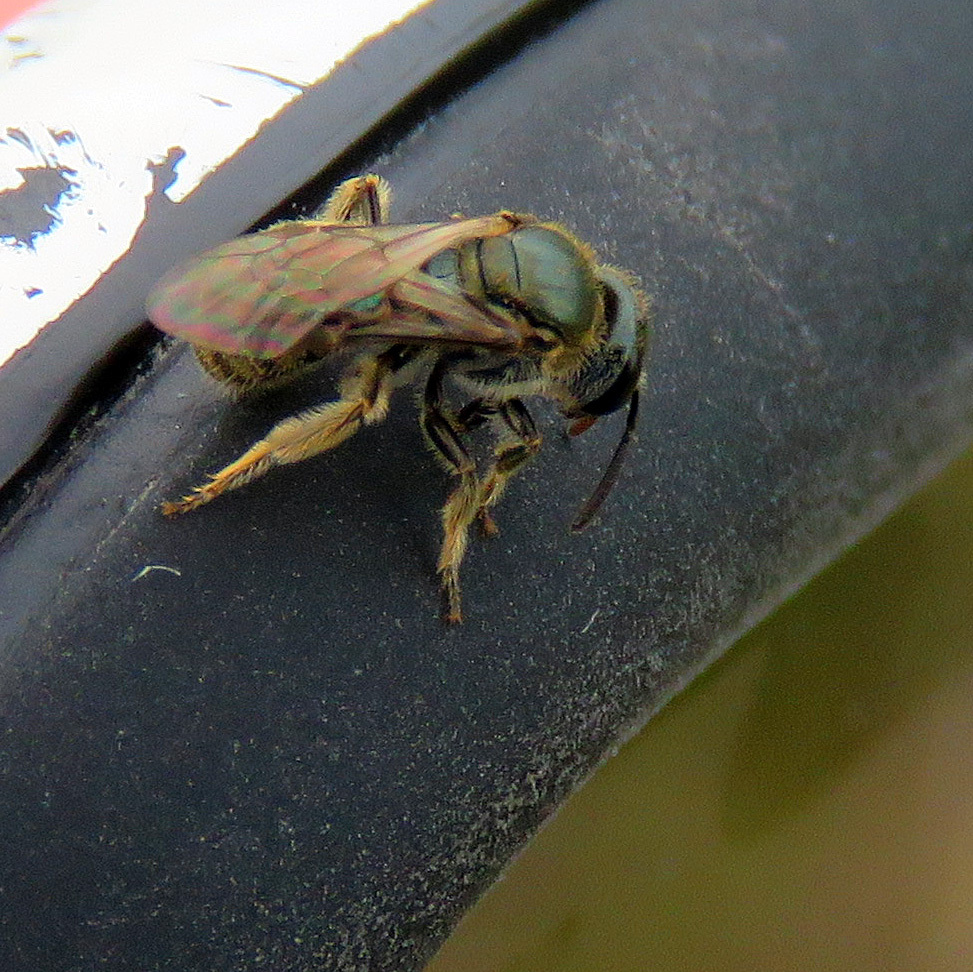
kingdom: Animalia
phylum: Arthropoda
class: Insecta
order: Hymenoptera
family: Halictidae
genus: Dialictus
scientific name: Dialictus
